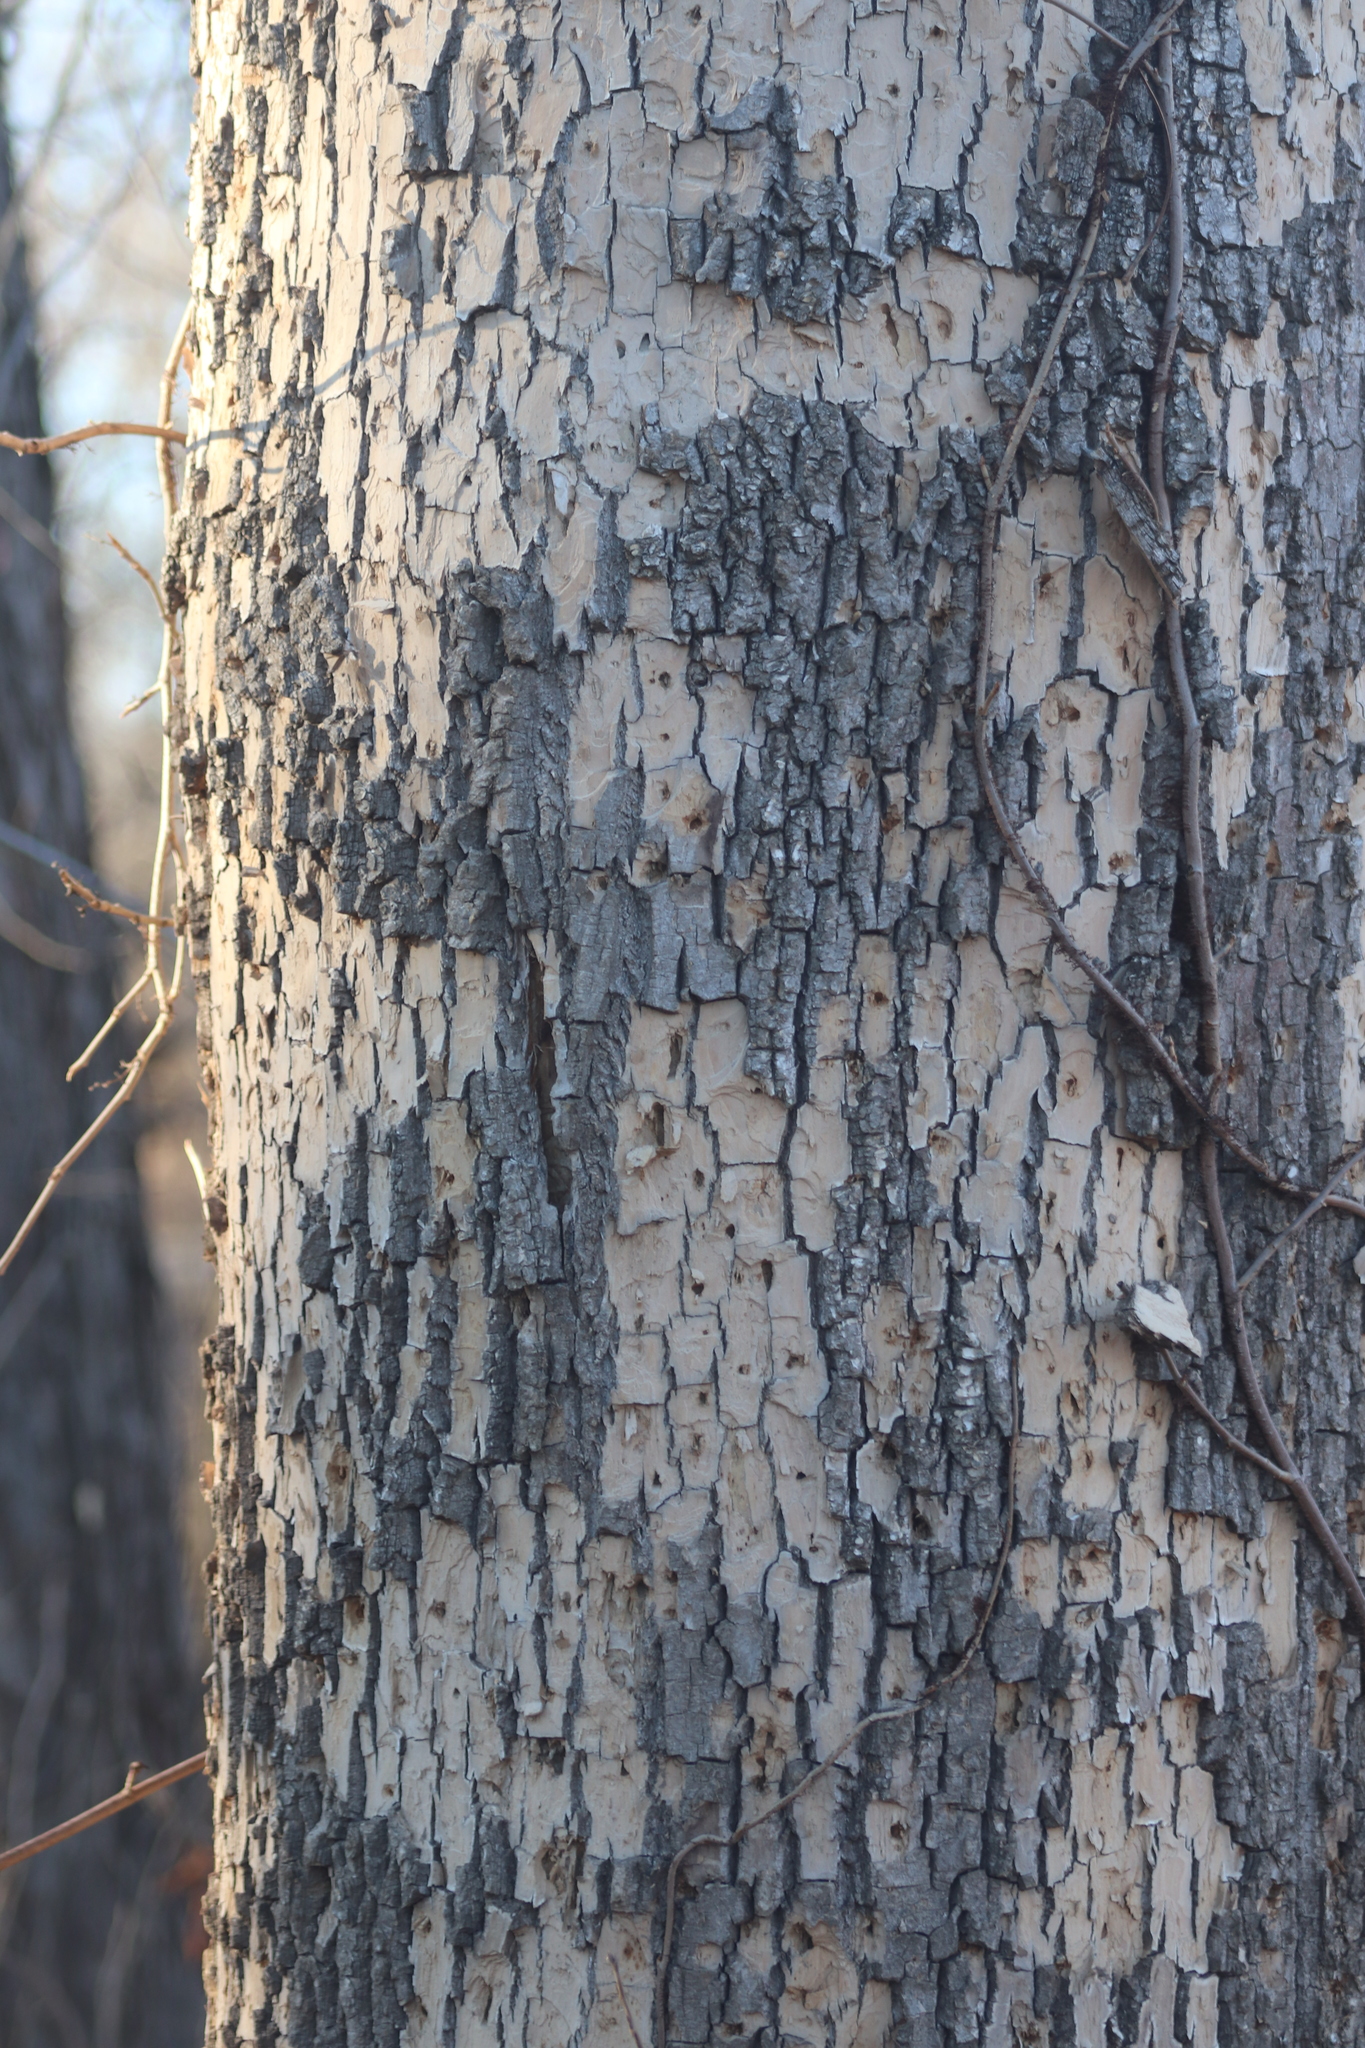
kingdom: Animalia
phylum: Arthropoda
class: Insecta
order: Coleoptera
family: Buprestidae
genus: Agrilus
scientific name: Agrilus planipennis
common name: Emerald ash borer
